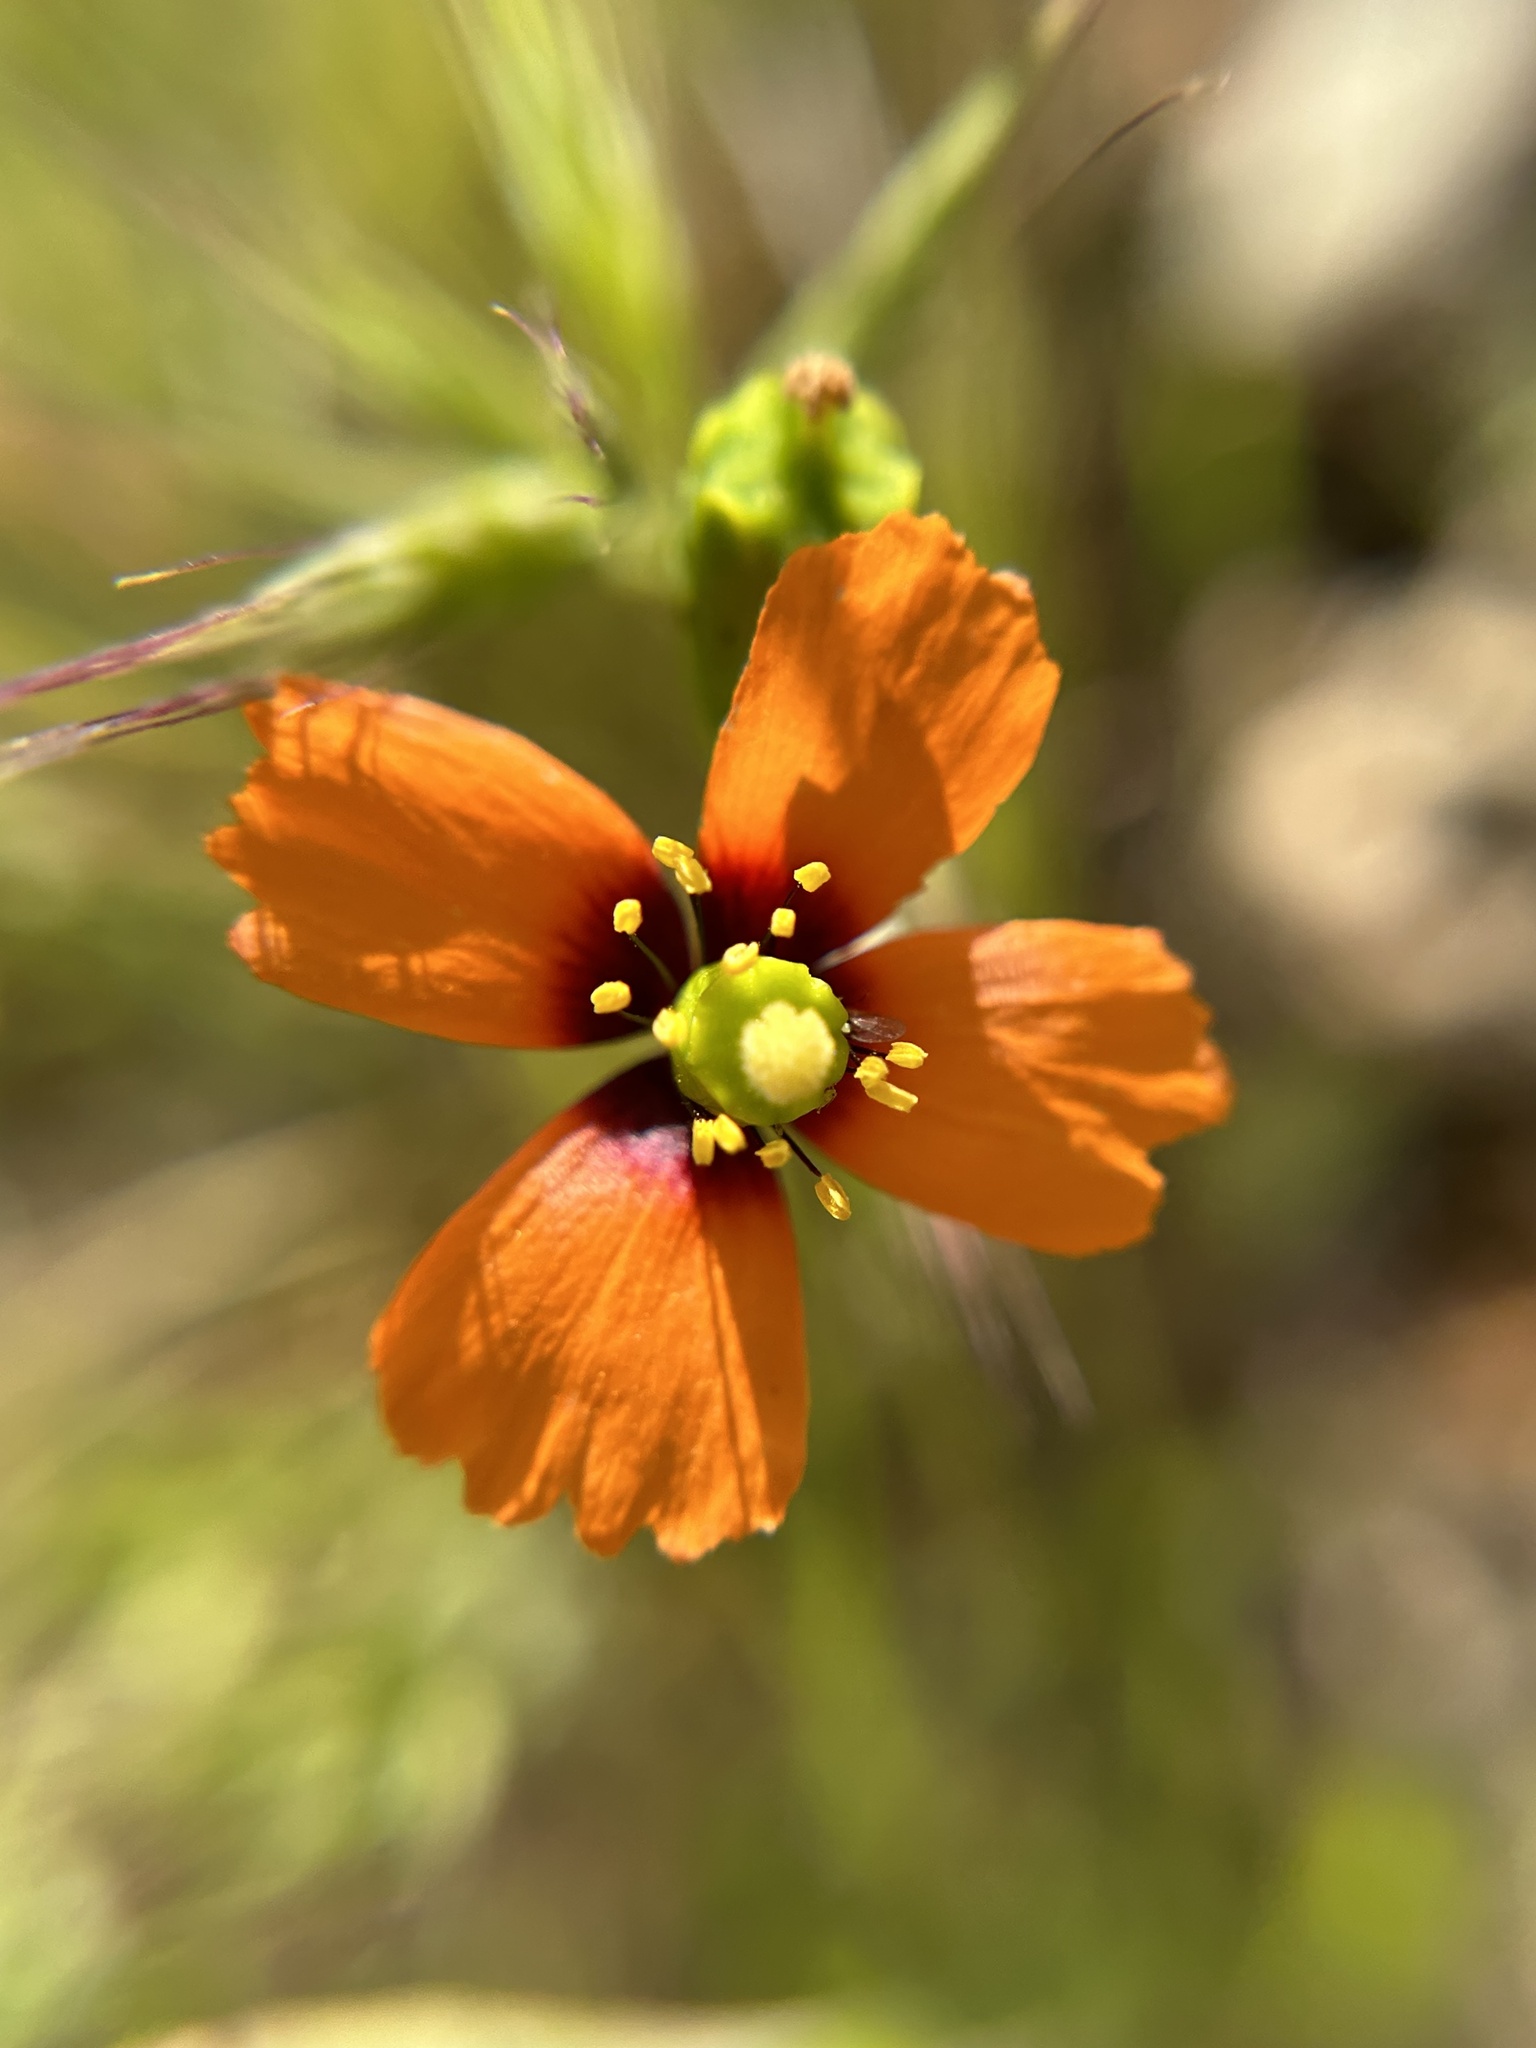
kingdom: Plantae
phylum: Tracheophyta
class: Magnoliopsida
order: Ranunculales
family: Papaveraceae
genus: Stylomecon
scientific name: Stylomecon heterophylla
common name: Flaming-poppy
